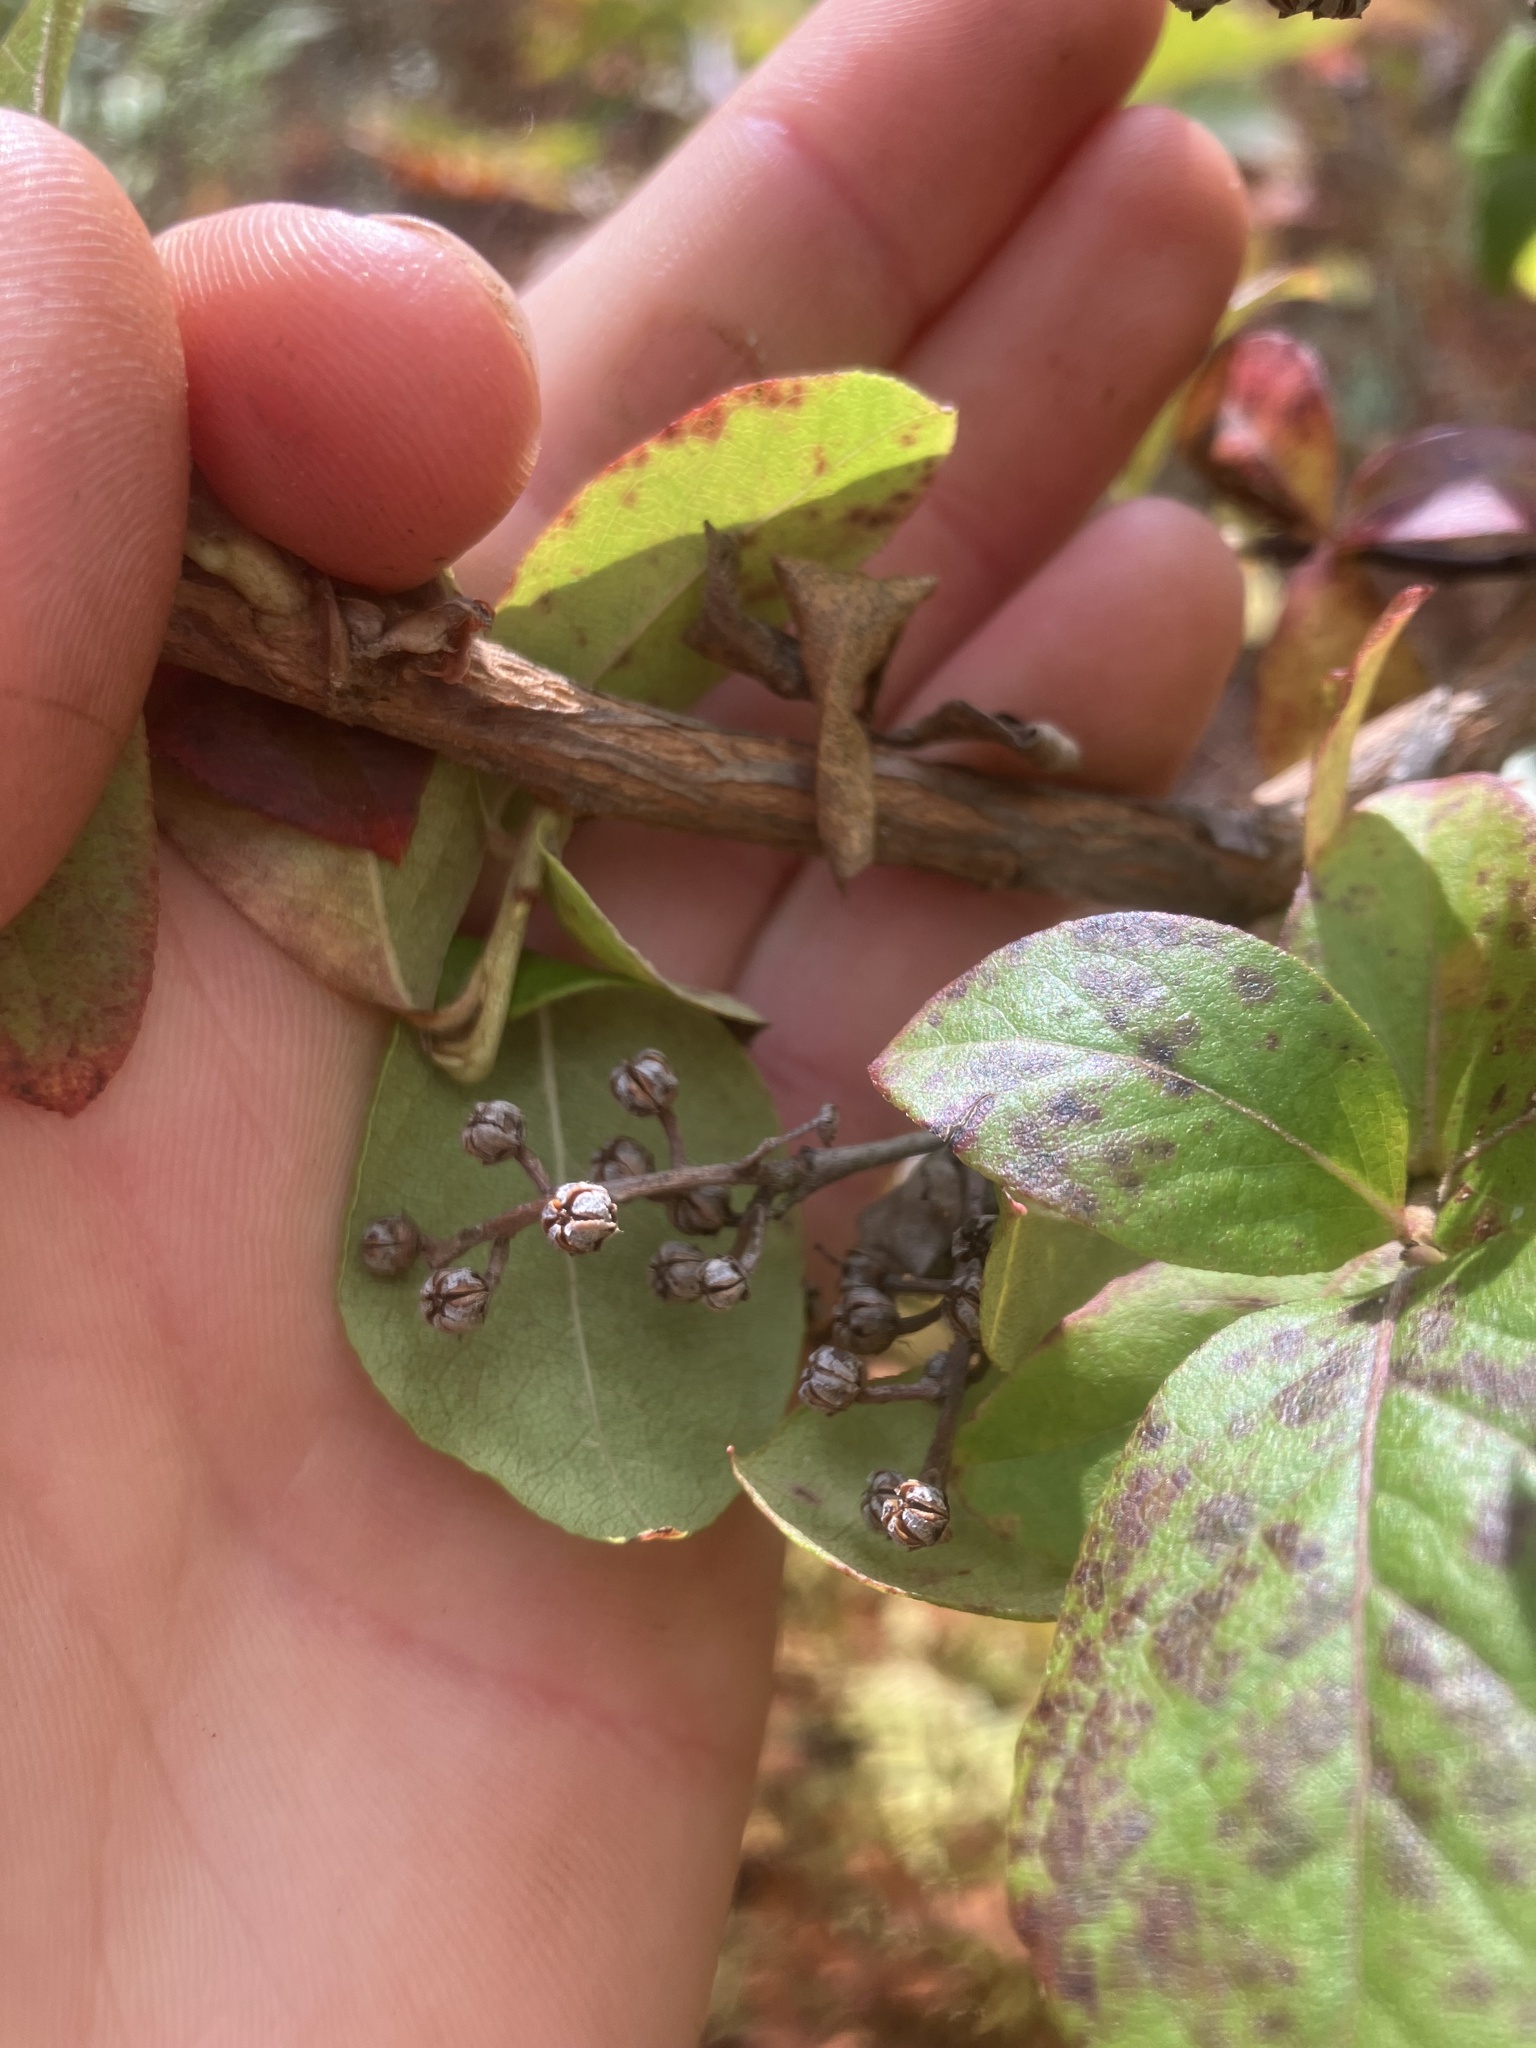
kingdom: Plantae
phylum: Tracheophyta
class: Magnoliopsida
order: Ericales
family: Ericaceae
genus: Lyonia
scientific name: Lyonia ligustrina
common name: Maleberry
